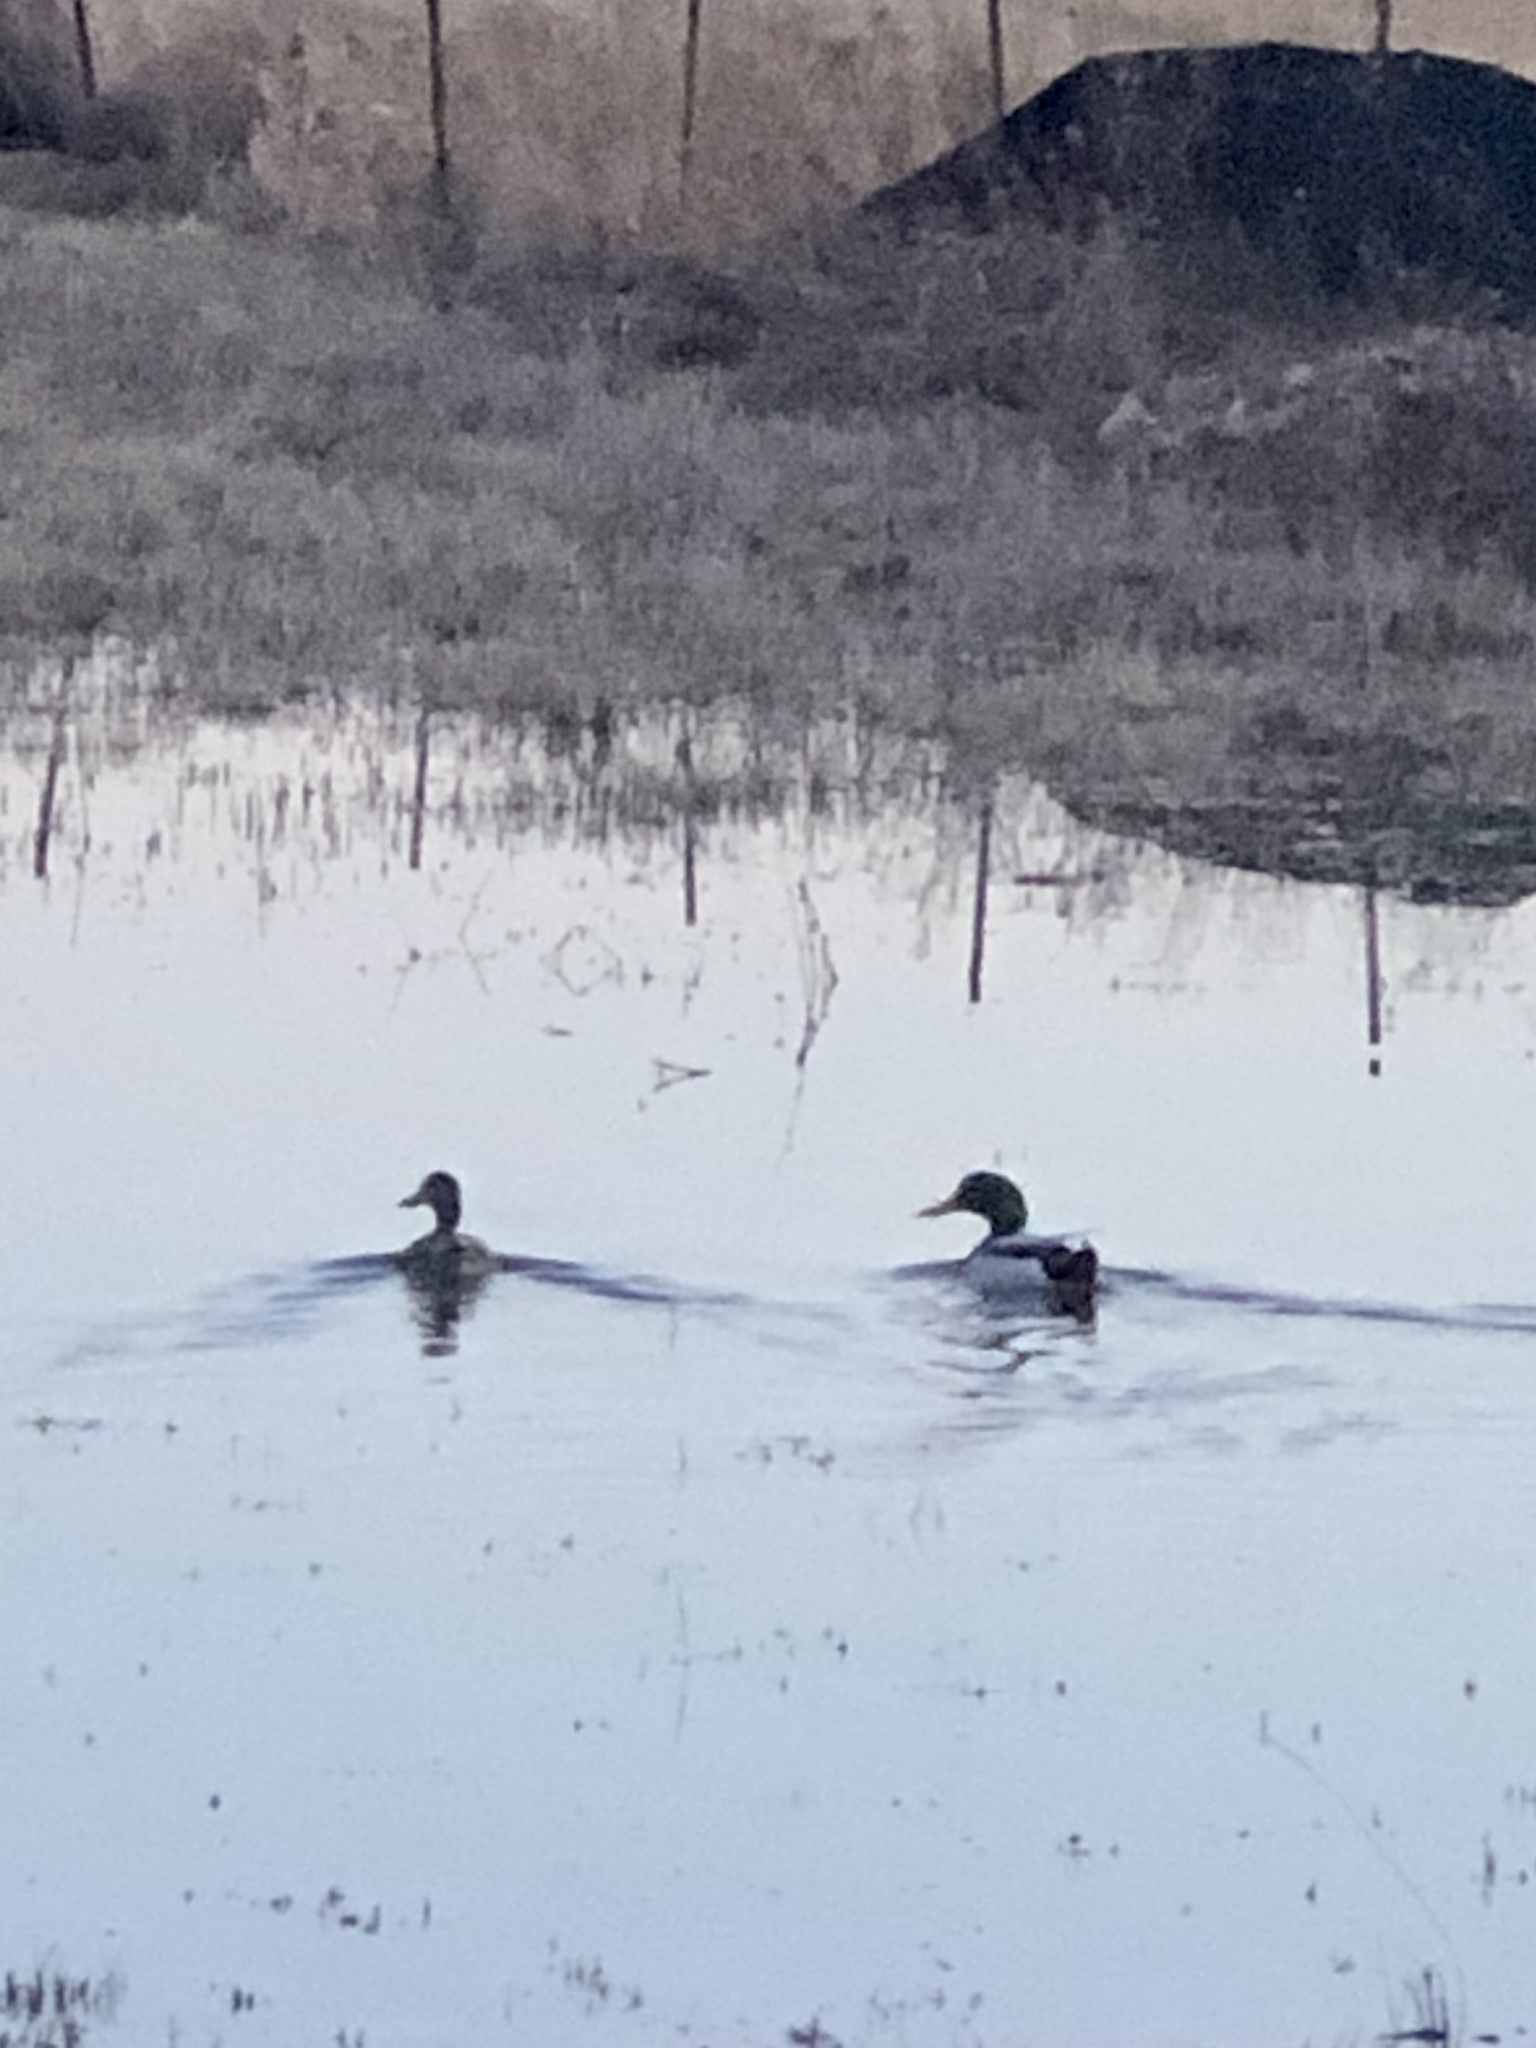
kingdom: Animalia
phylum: Chordata
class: Aves
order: Anseriformes
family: Anatidae
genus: Anas
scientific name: Anas platyrhynchos
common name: Mallard
